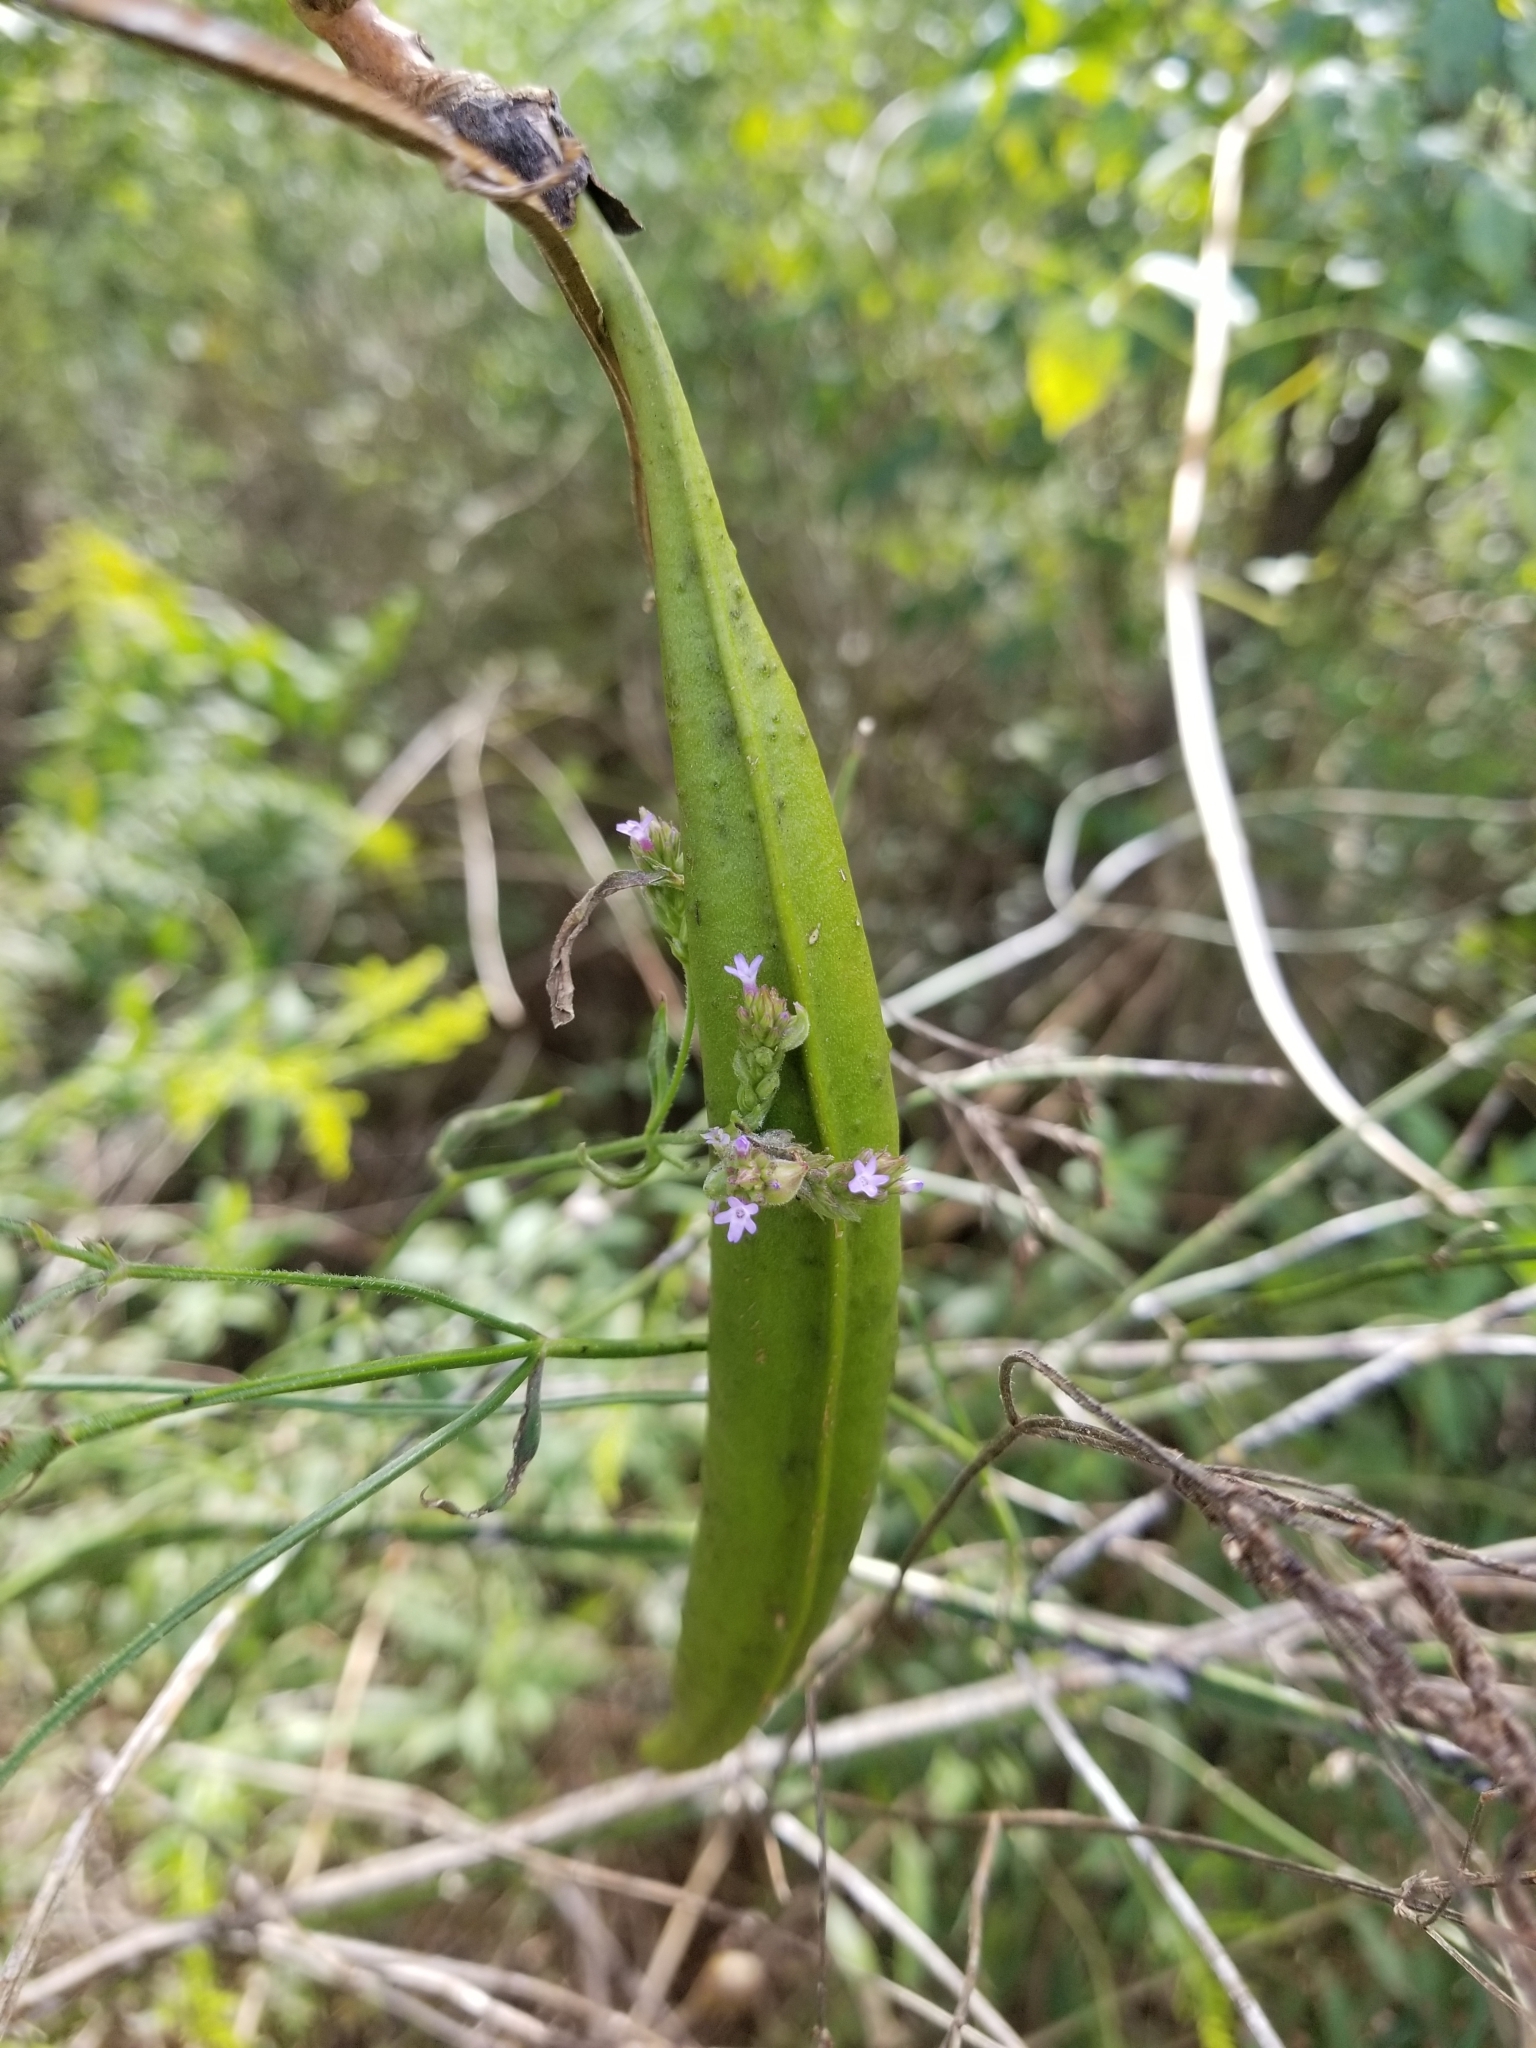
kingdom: Plantae
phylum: Tracheophyta
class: Magnoliopsida
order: Lamiales
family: Bignoniaceae
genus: Campsis
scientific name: Campsis radicans
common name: Trumpet-creeper
